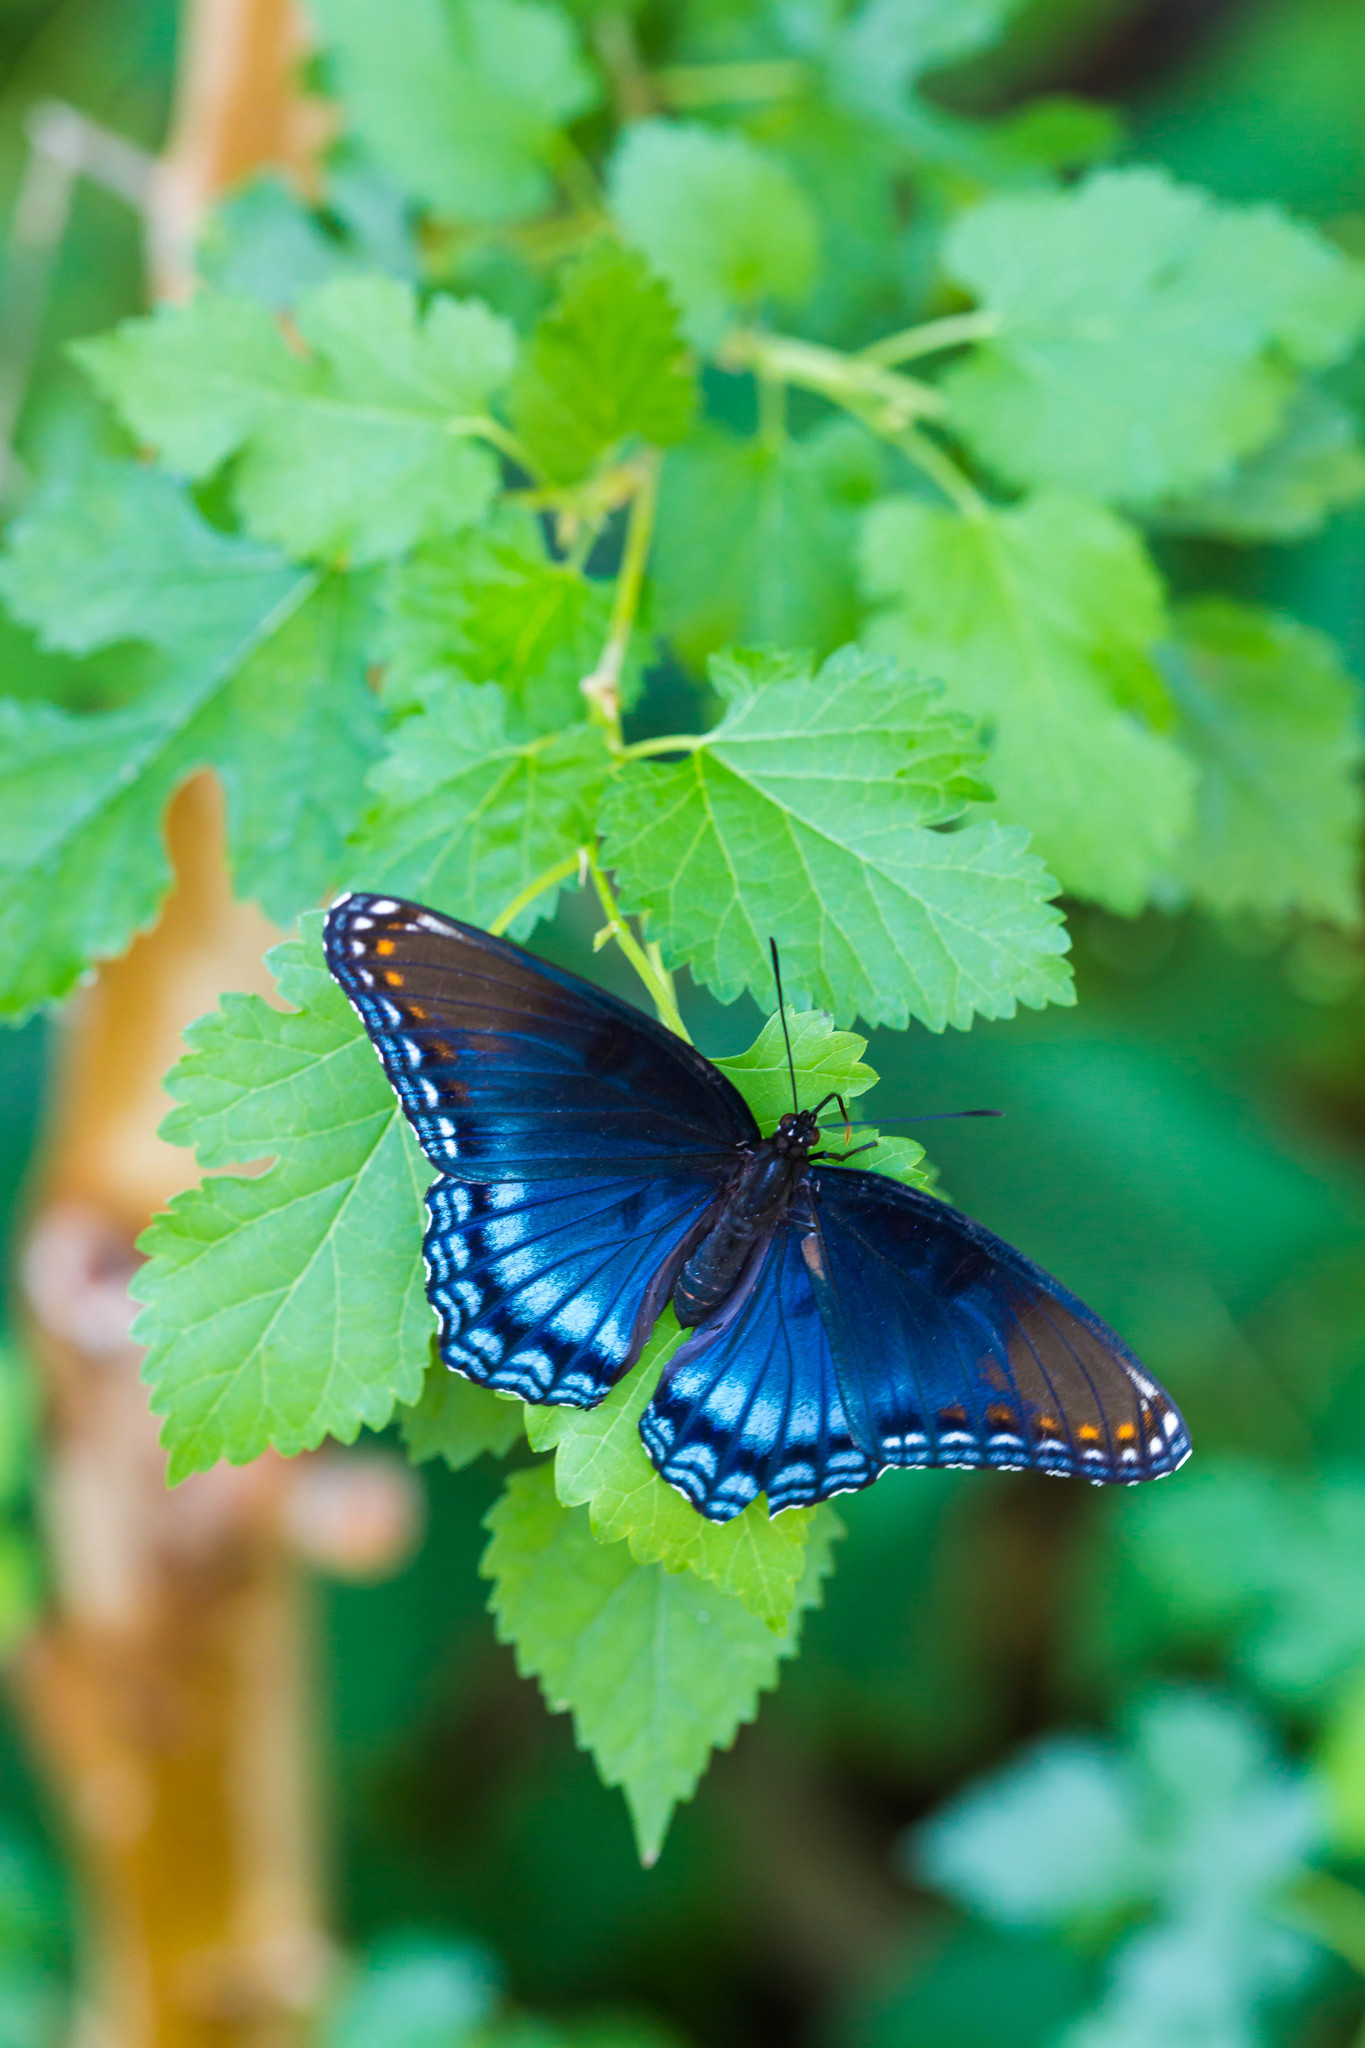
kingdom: Animalia
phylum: Arthropoda
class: Insecta
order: Lepidoptera
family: Nymphalidae
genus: Limenitis
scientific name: Limenitis astyanax
